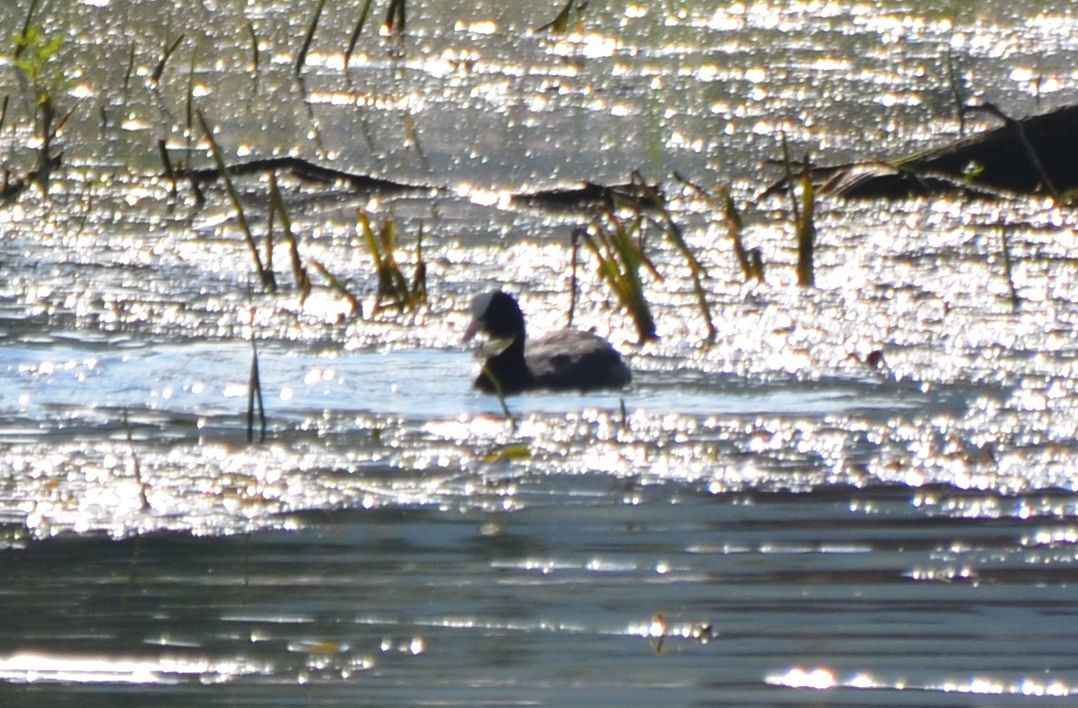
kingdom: Animalia
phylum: Chordata
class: Aves
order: Gruiformes
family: Rallidae
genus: Fulica
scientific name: Fulica atra
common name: Eurasian coot
